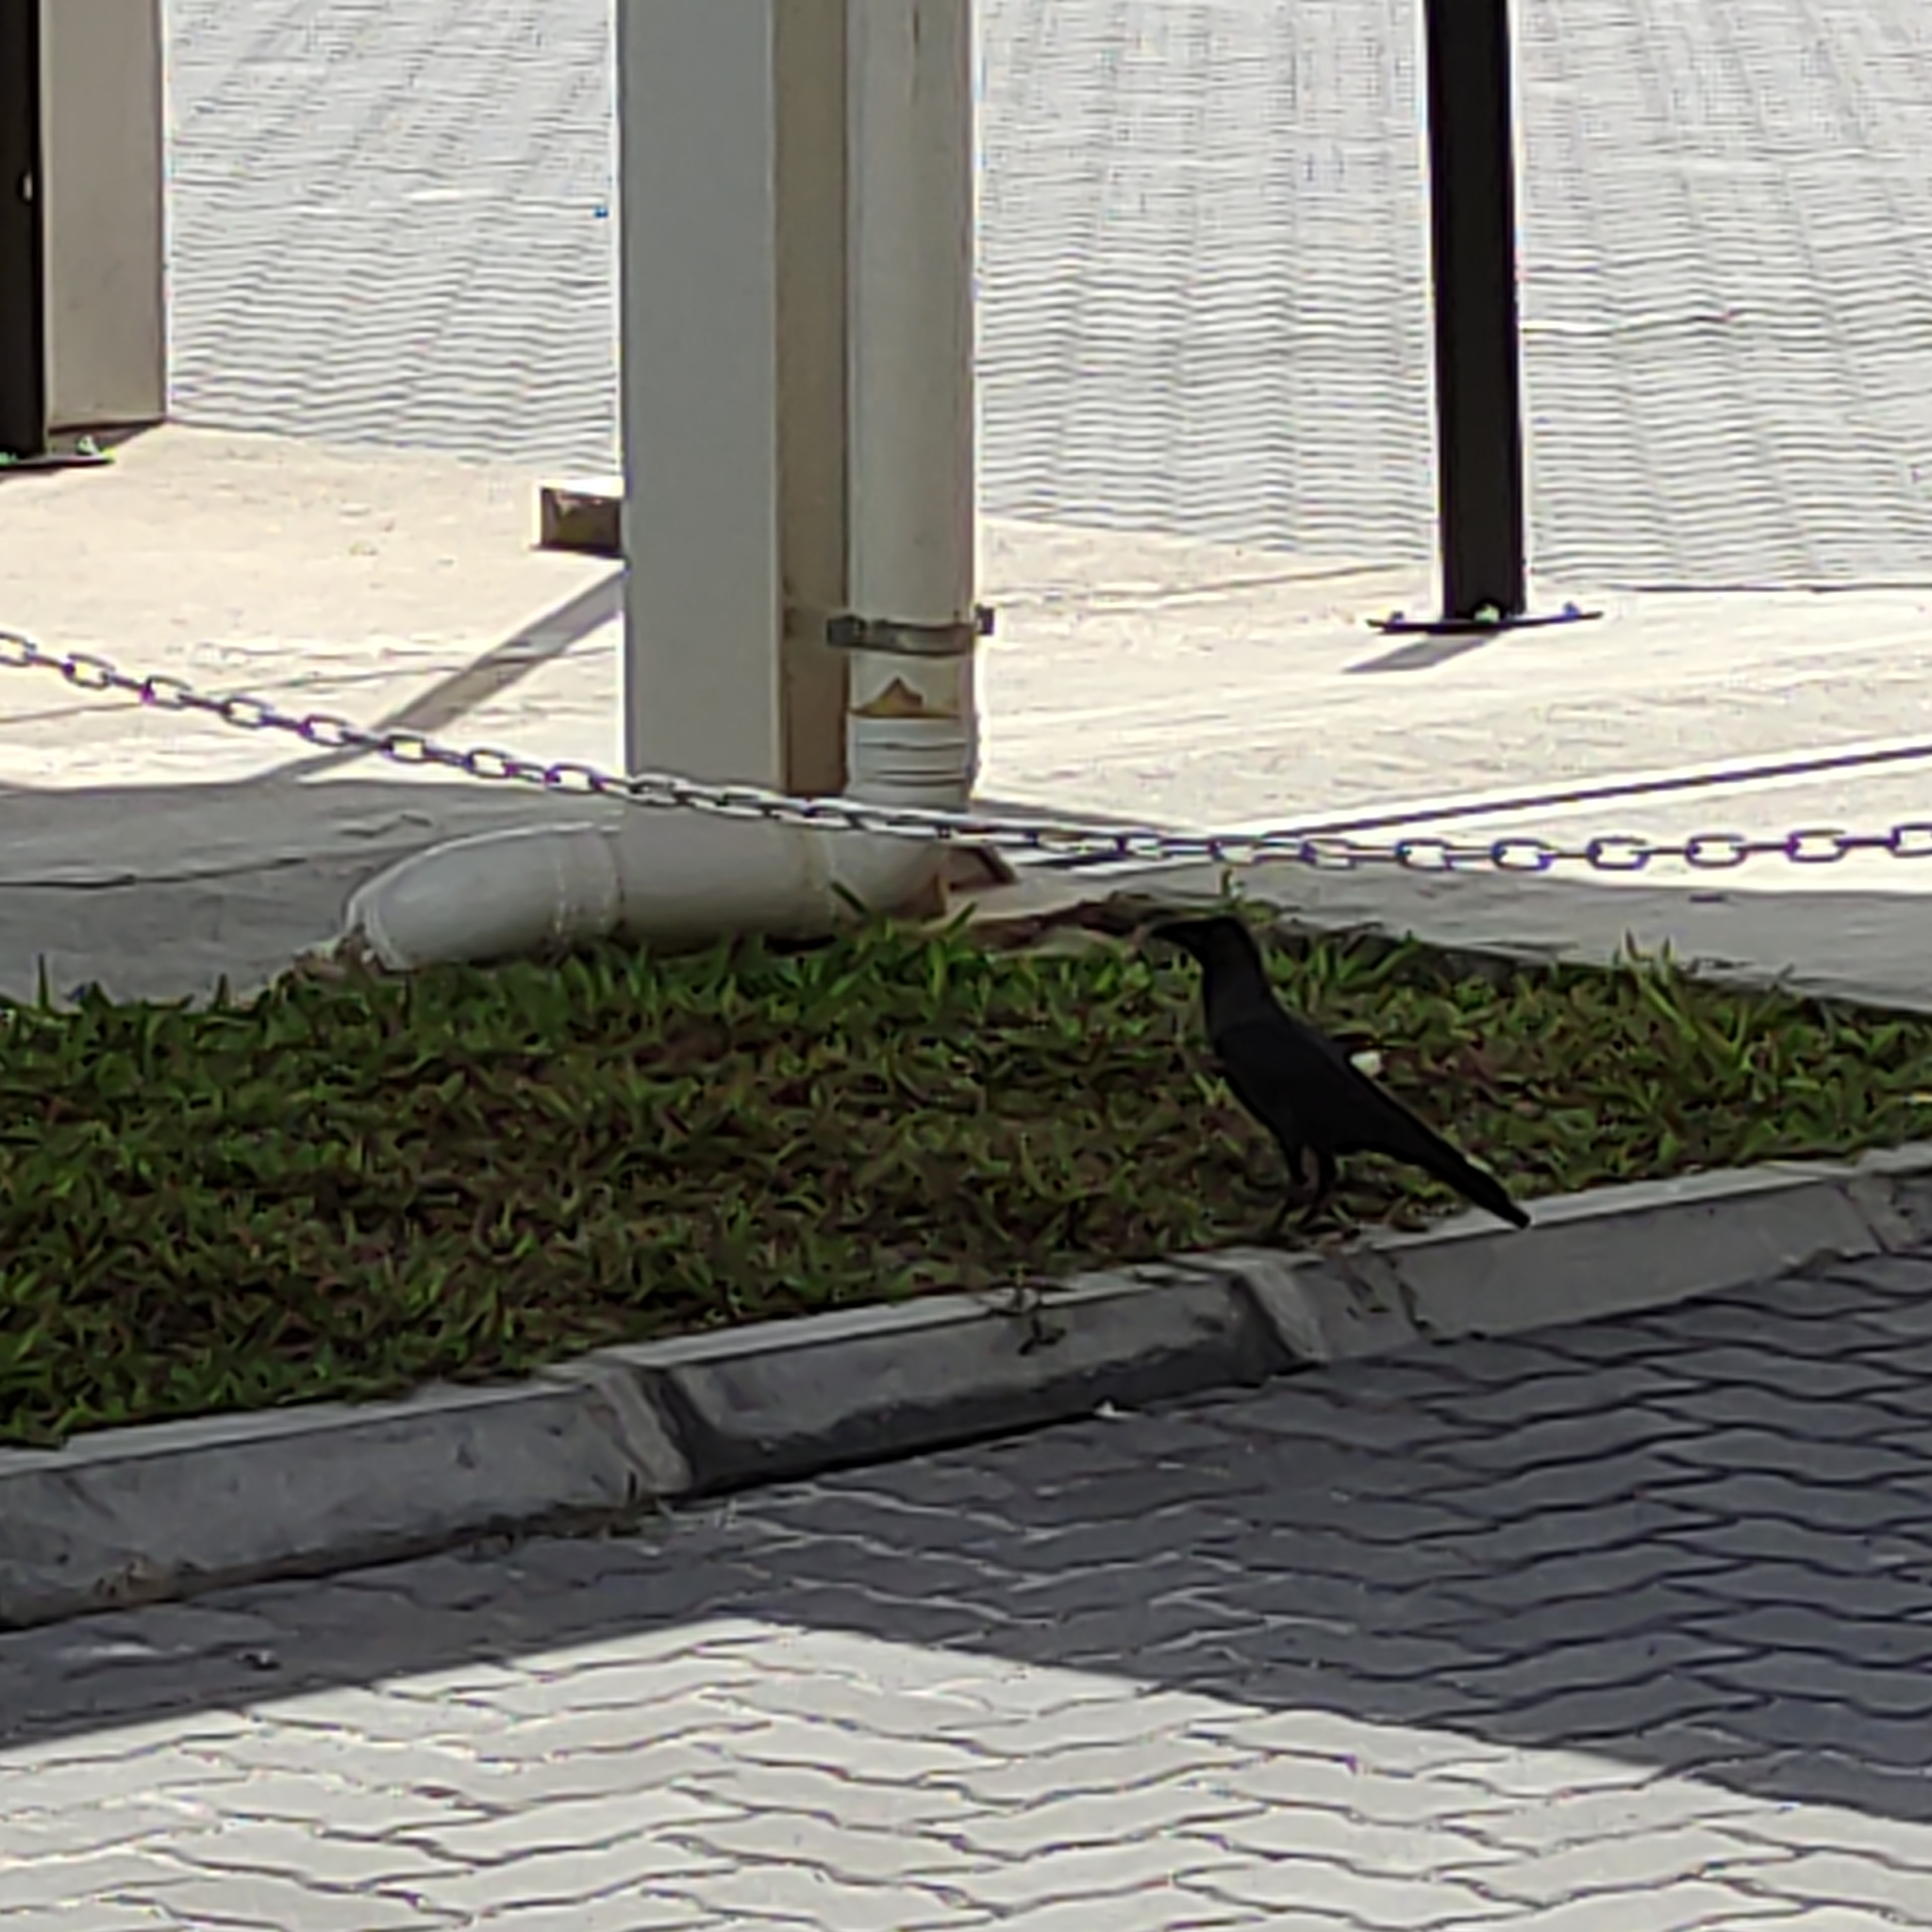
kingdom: Animalia
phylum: Chordata
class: Aves
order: Passeriformes
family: Corvidae
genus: Corvus
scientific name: Corvus splendens
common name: House crow
